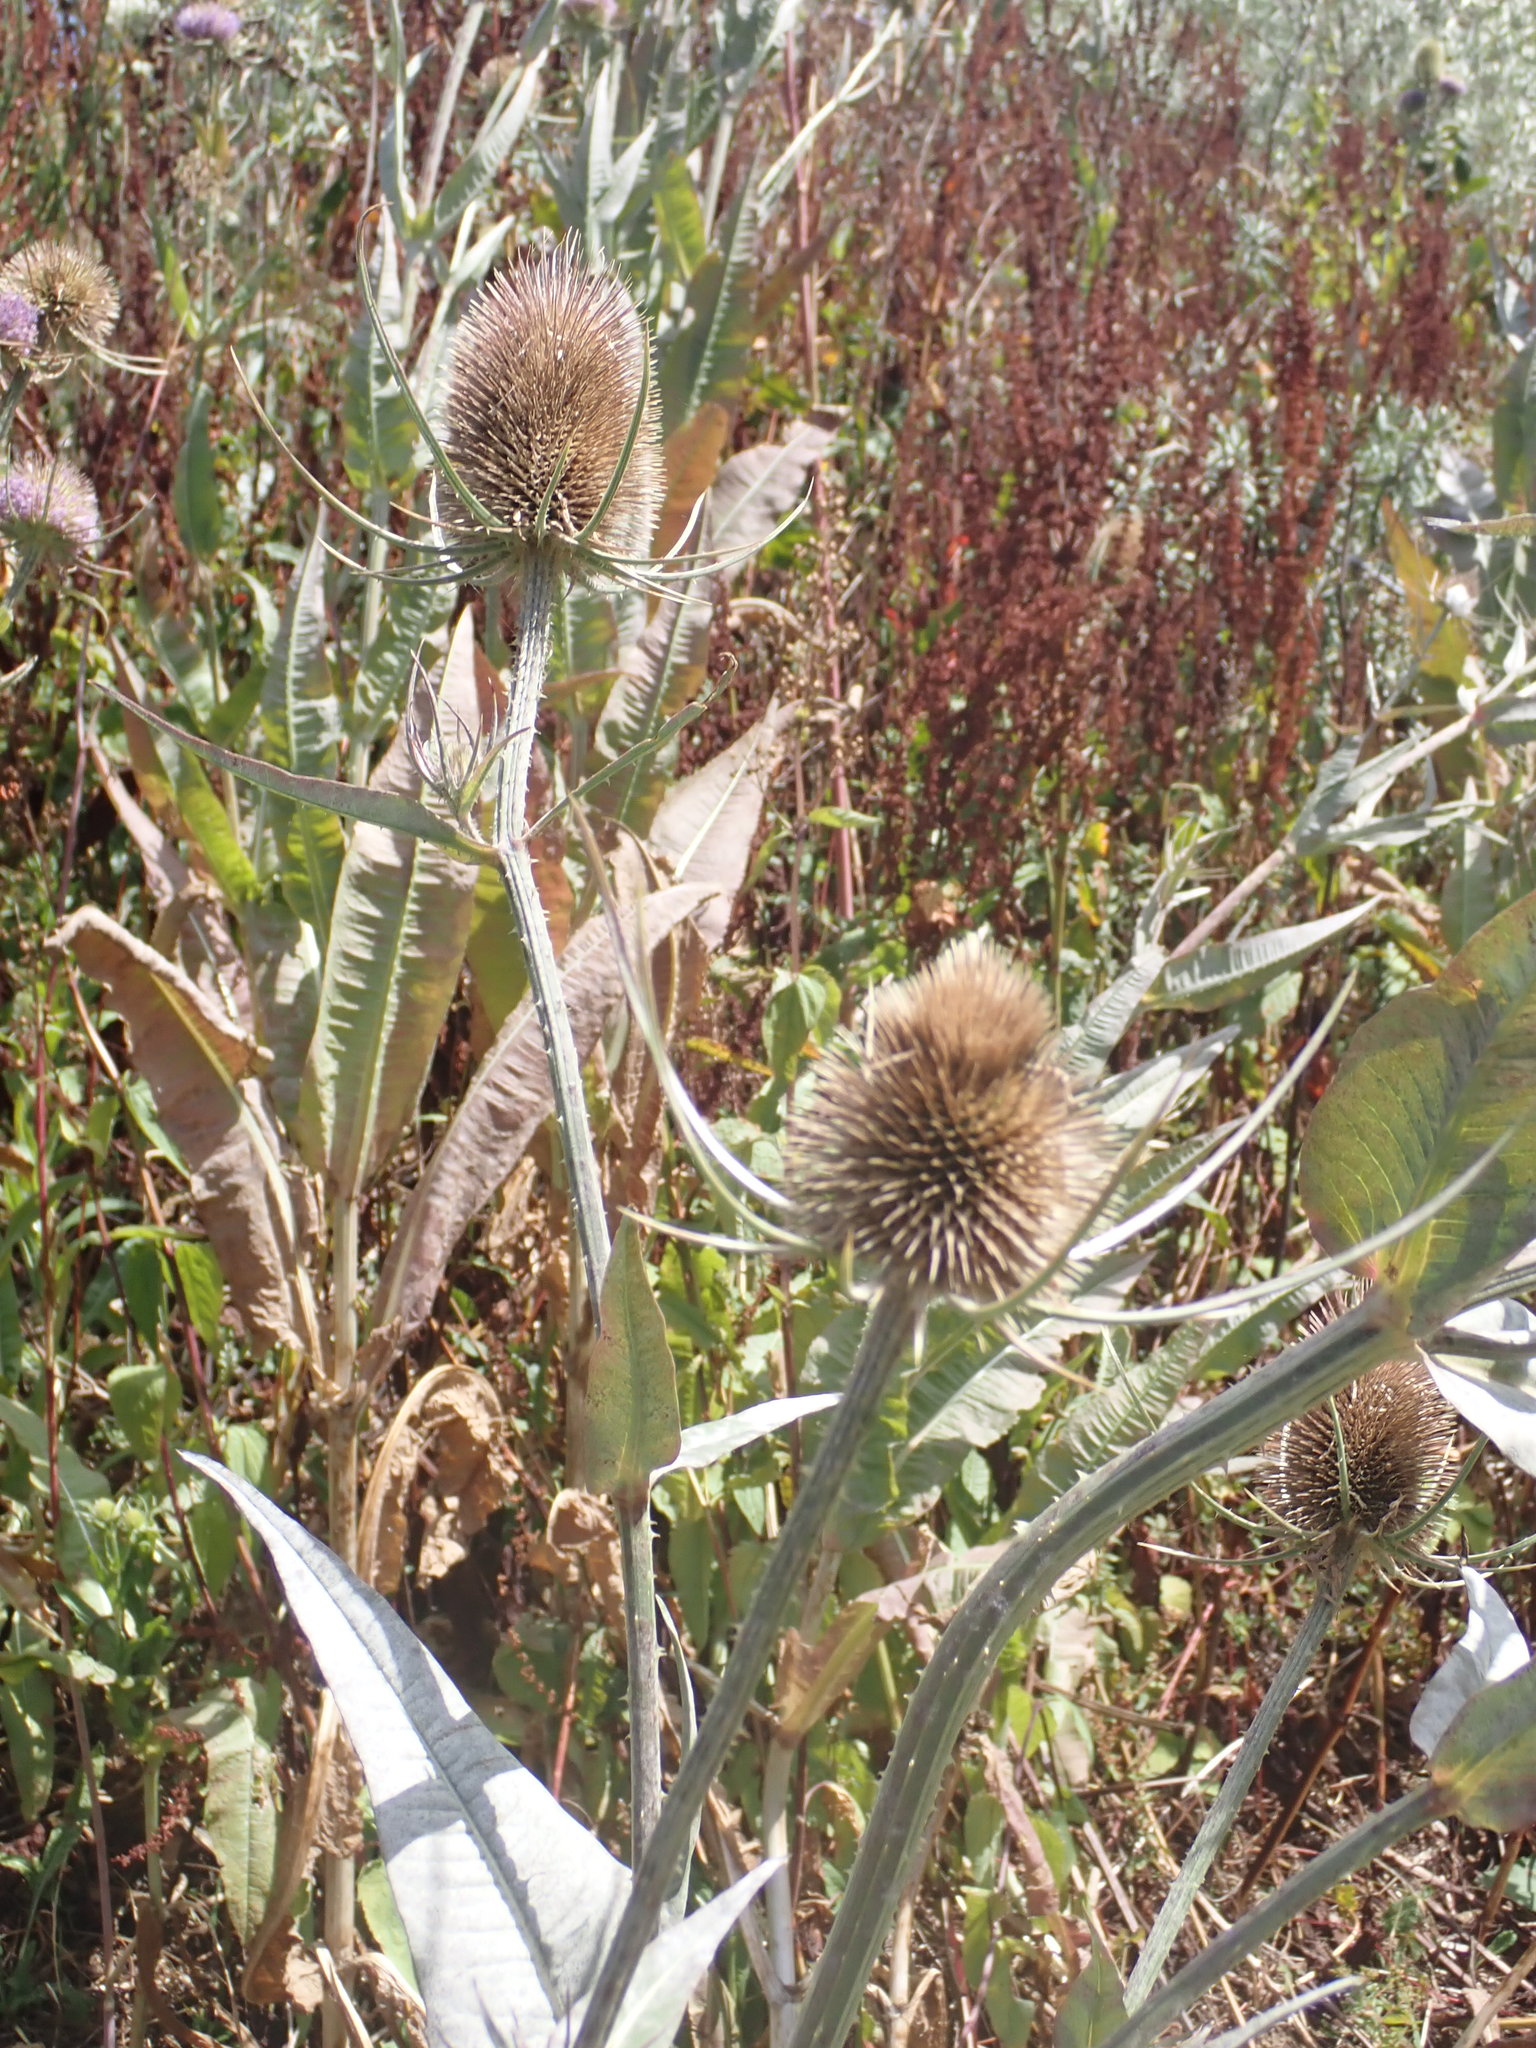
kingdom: Plantae
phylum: Tracheophyta
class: Magnoliopsida
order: Dipsacales
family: Caprifoliaceae
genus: Dipsacus
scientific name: Dipsacus fullonum
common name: Teasel
